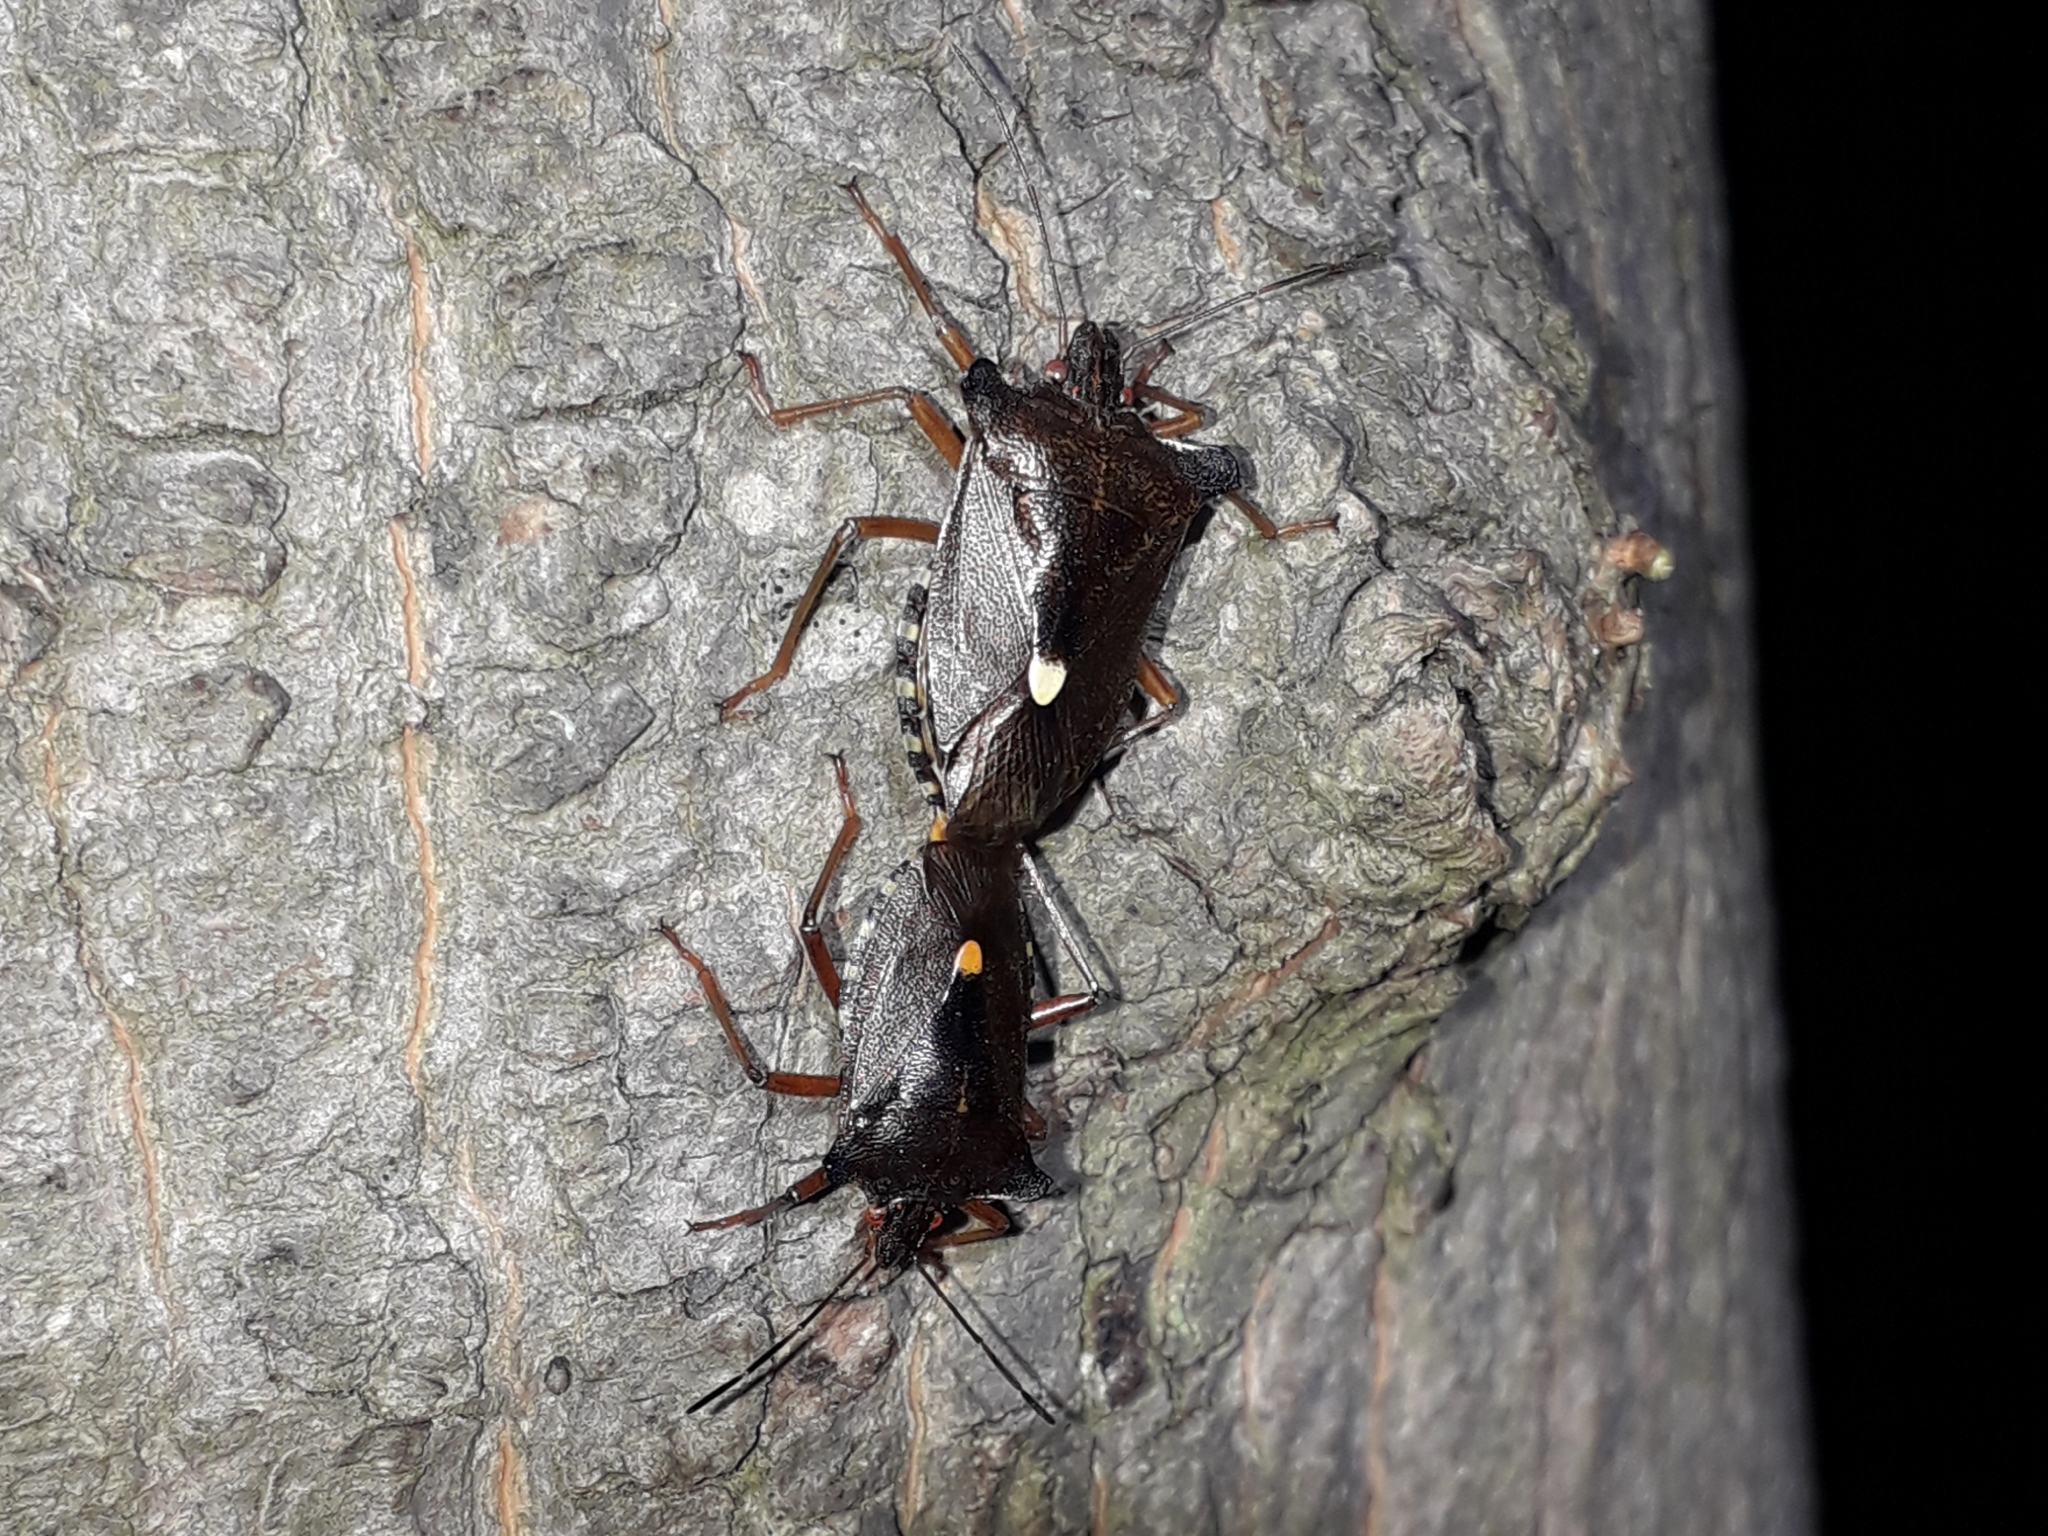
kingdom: Animalia
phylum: Arthropoda
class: Insecta
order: Hemiptera
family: Pentatomidae
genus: Pentatoma
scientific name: Pentatoma rufipes
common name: Forest bug
